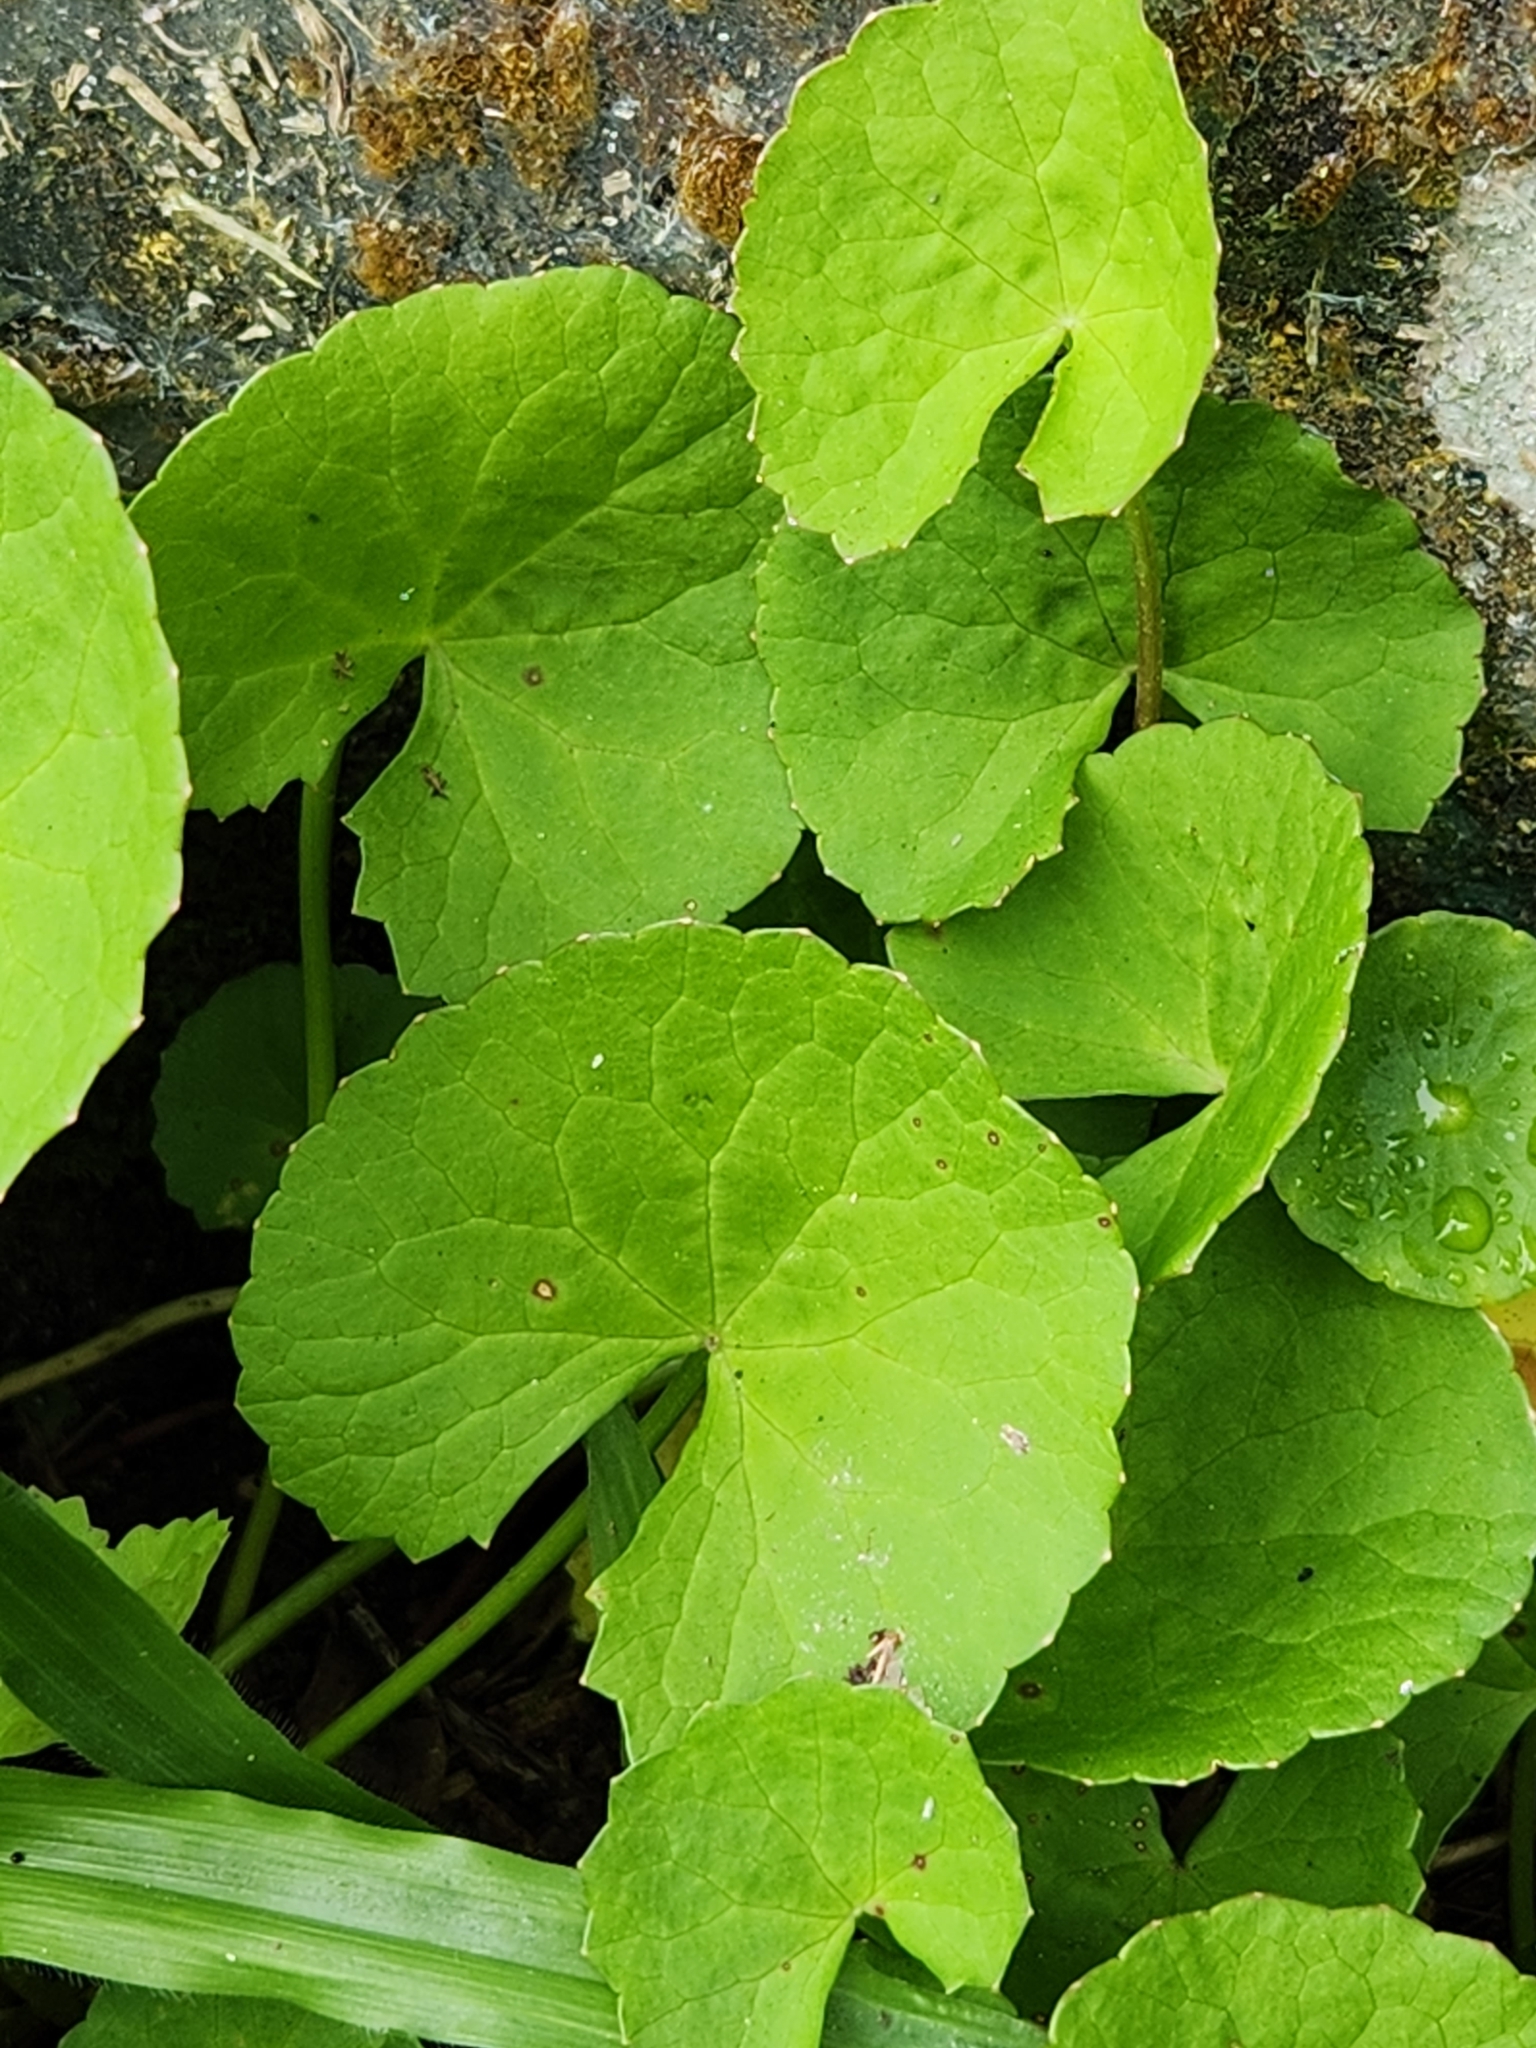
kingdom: Plantae
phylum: Tracheophyta
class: Magnoliopsida
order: Apiales
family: Apiaceae
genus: Centella
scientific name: Centella asiatica
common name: Spadeleaf
